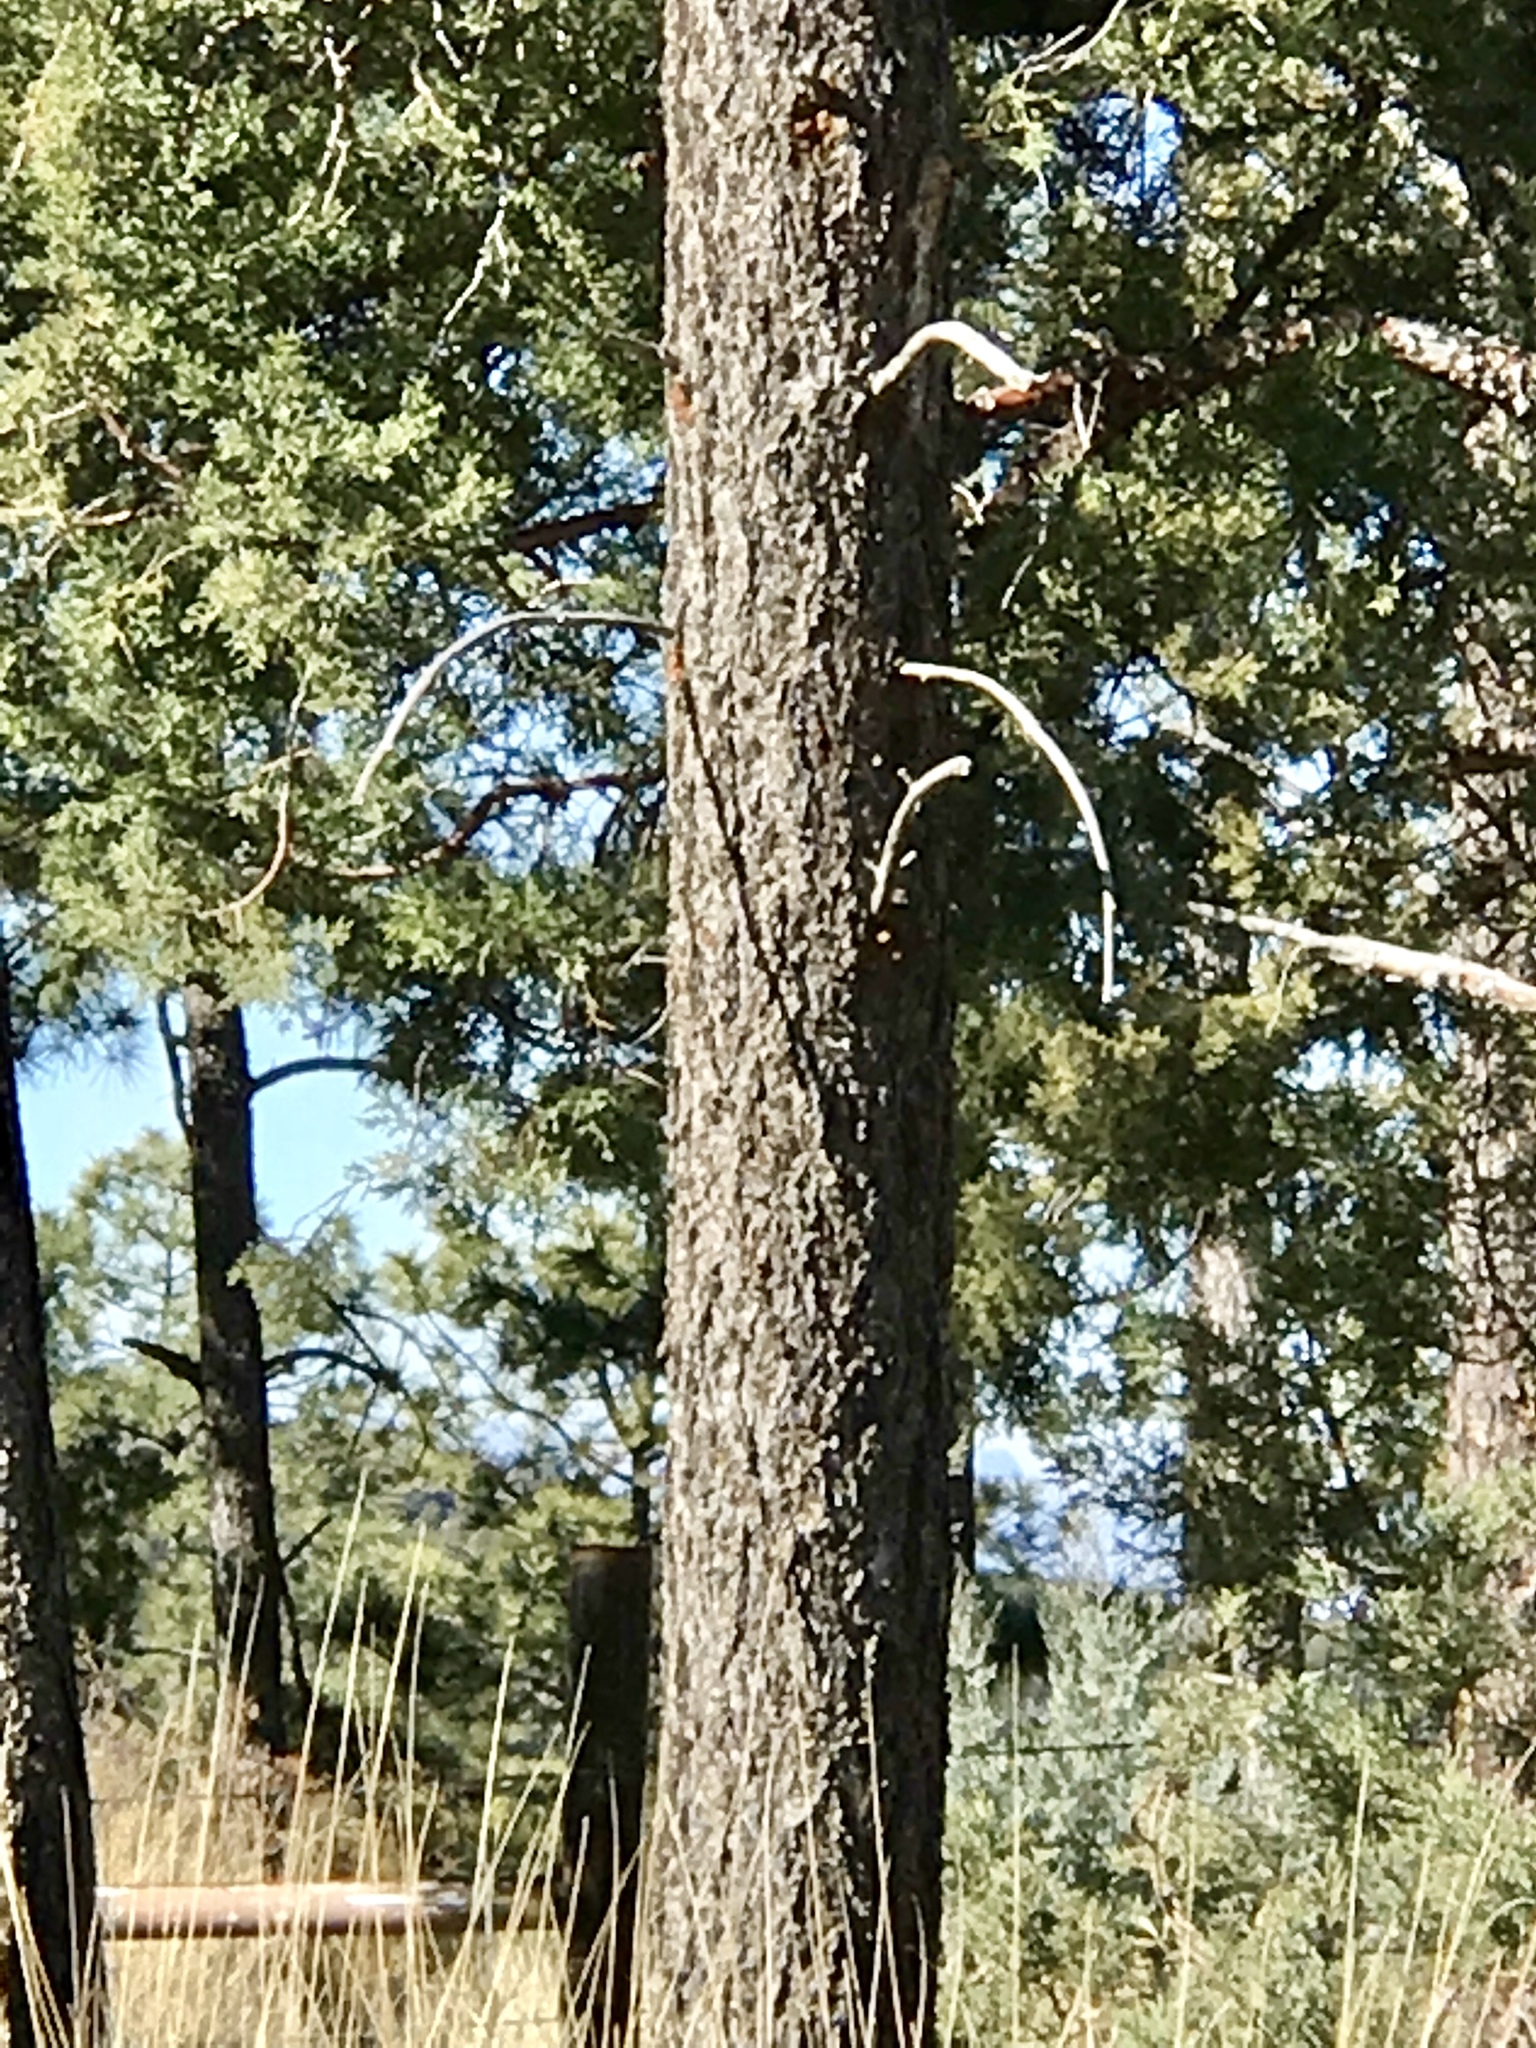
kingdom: Plantae
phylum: Tracheophyta
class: Pinopsida
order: Pinales
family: Pinaceae
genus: Pinus
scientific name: Pinus strobiformis
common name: Southwestern white pine
